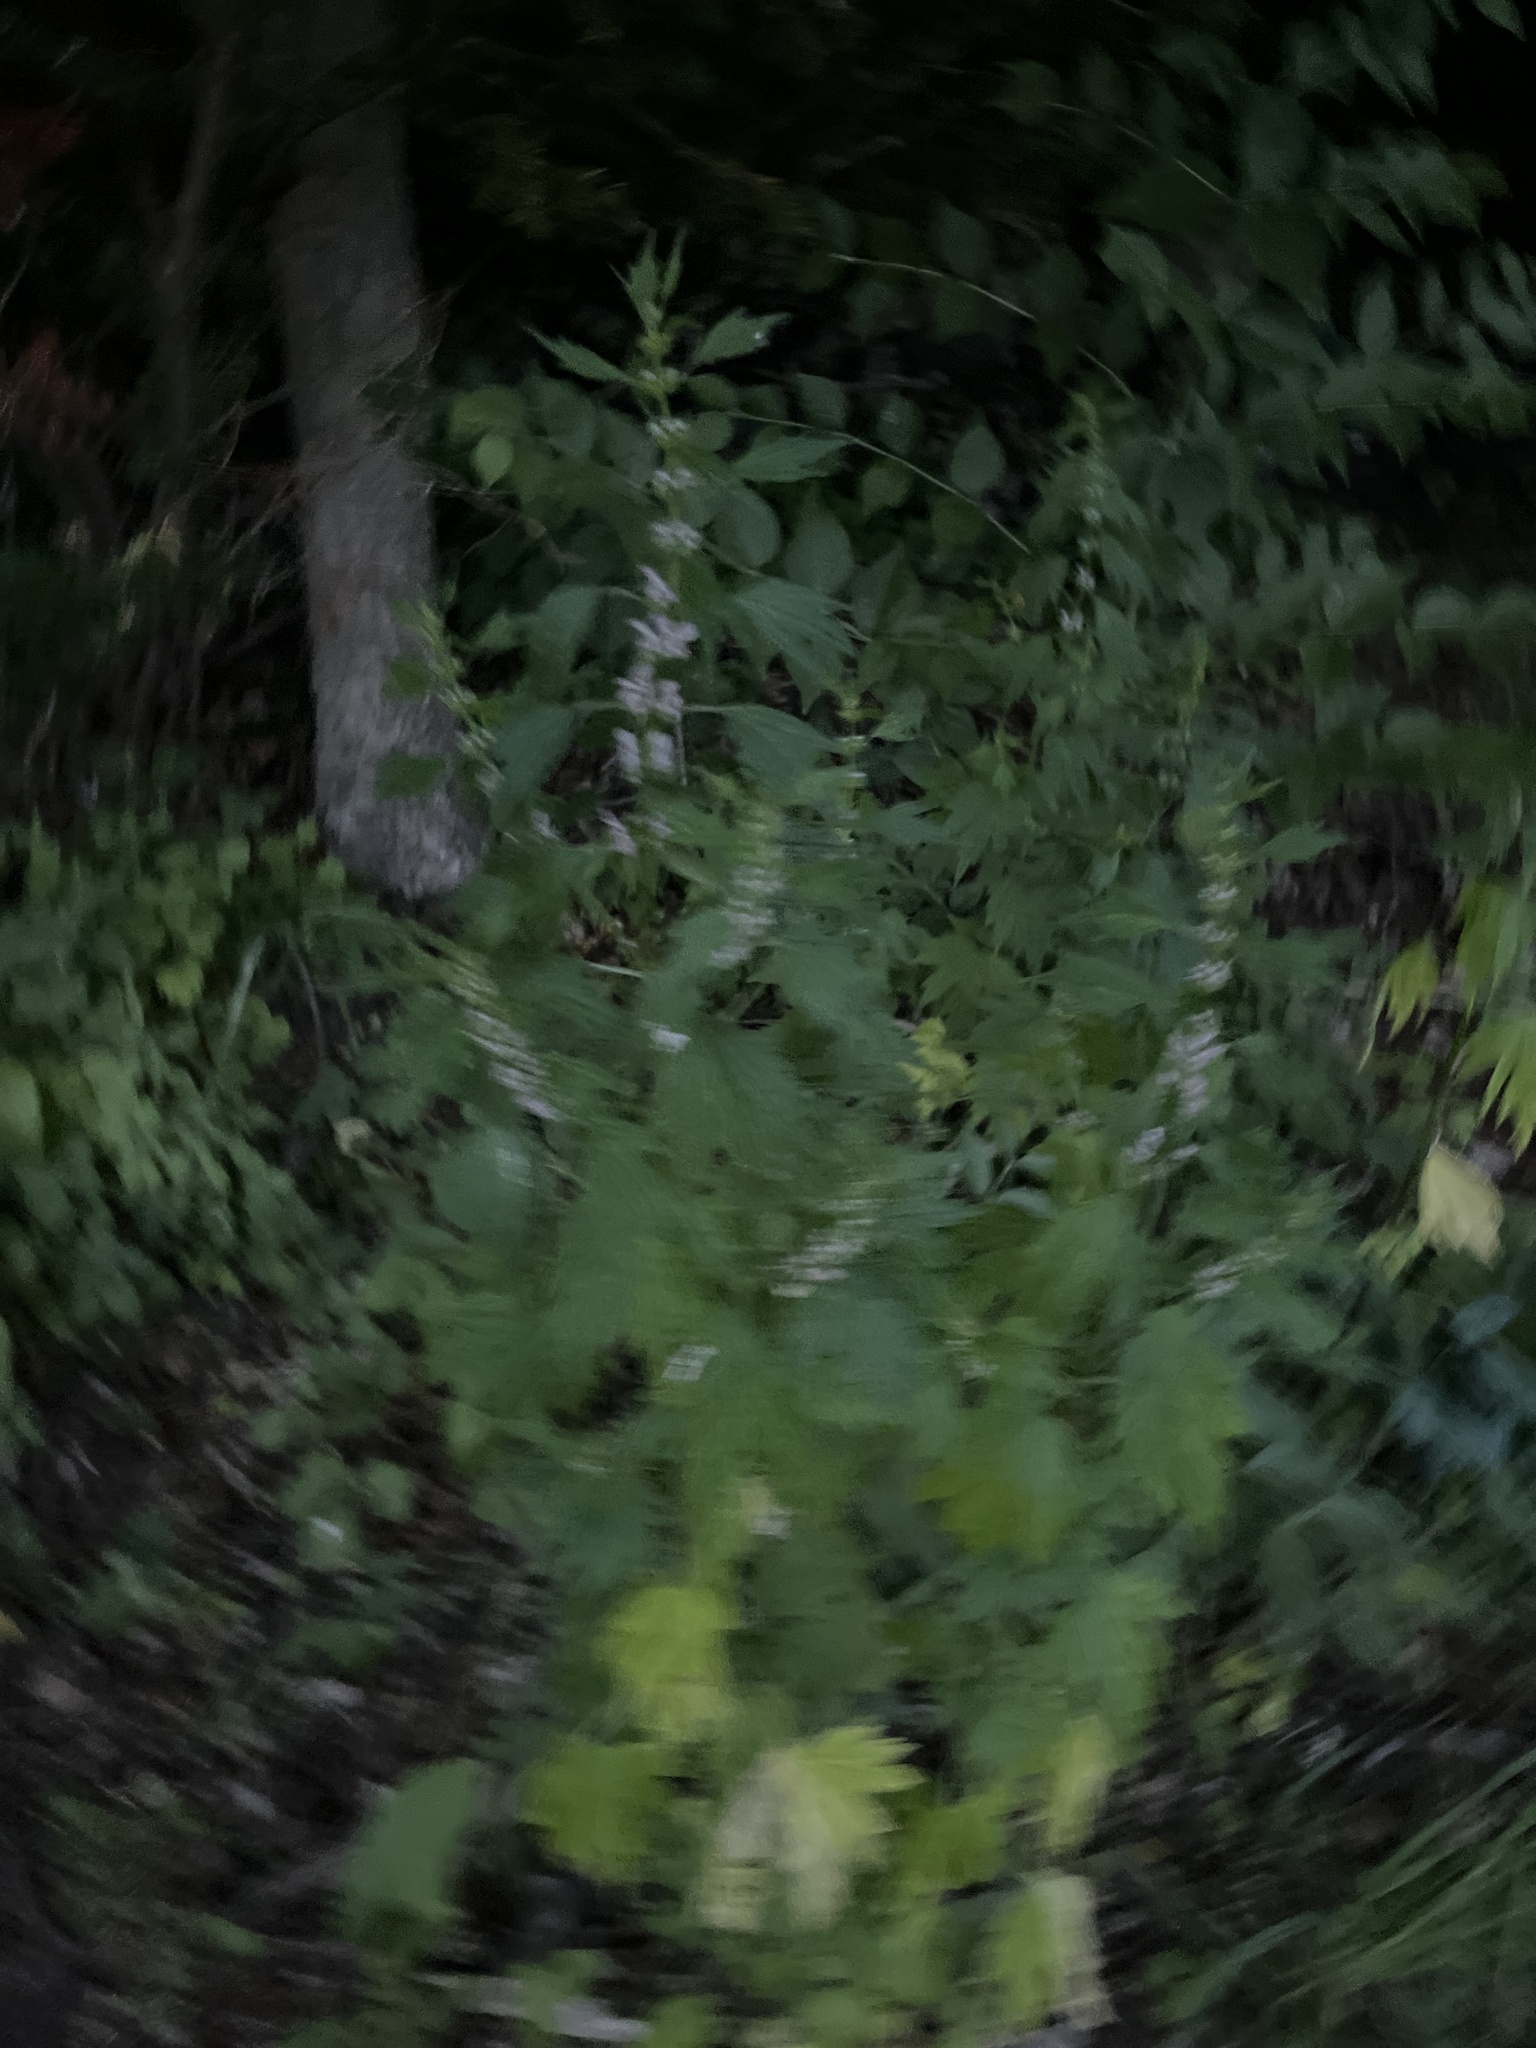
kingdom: Plantae
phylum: Tracheophyta
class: Magnoliopsida
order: Lamiales
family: Lamiaceae
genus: Leonurus
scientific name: Leonurus cardiaca
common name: Motherwort
